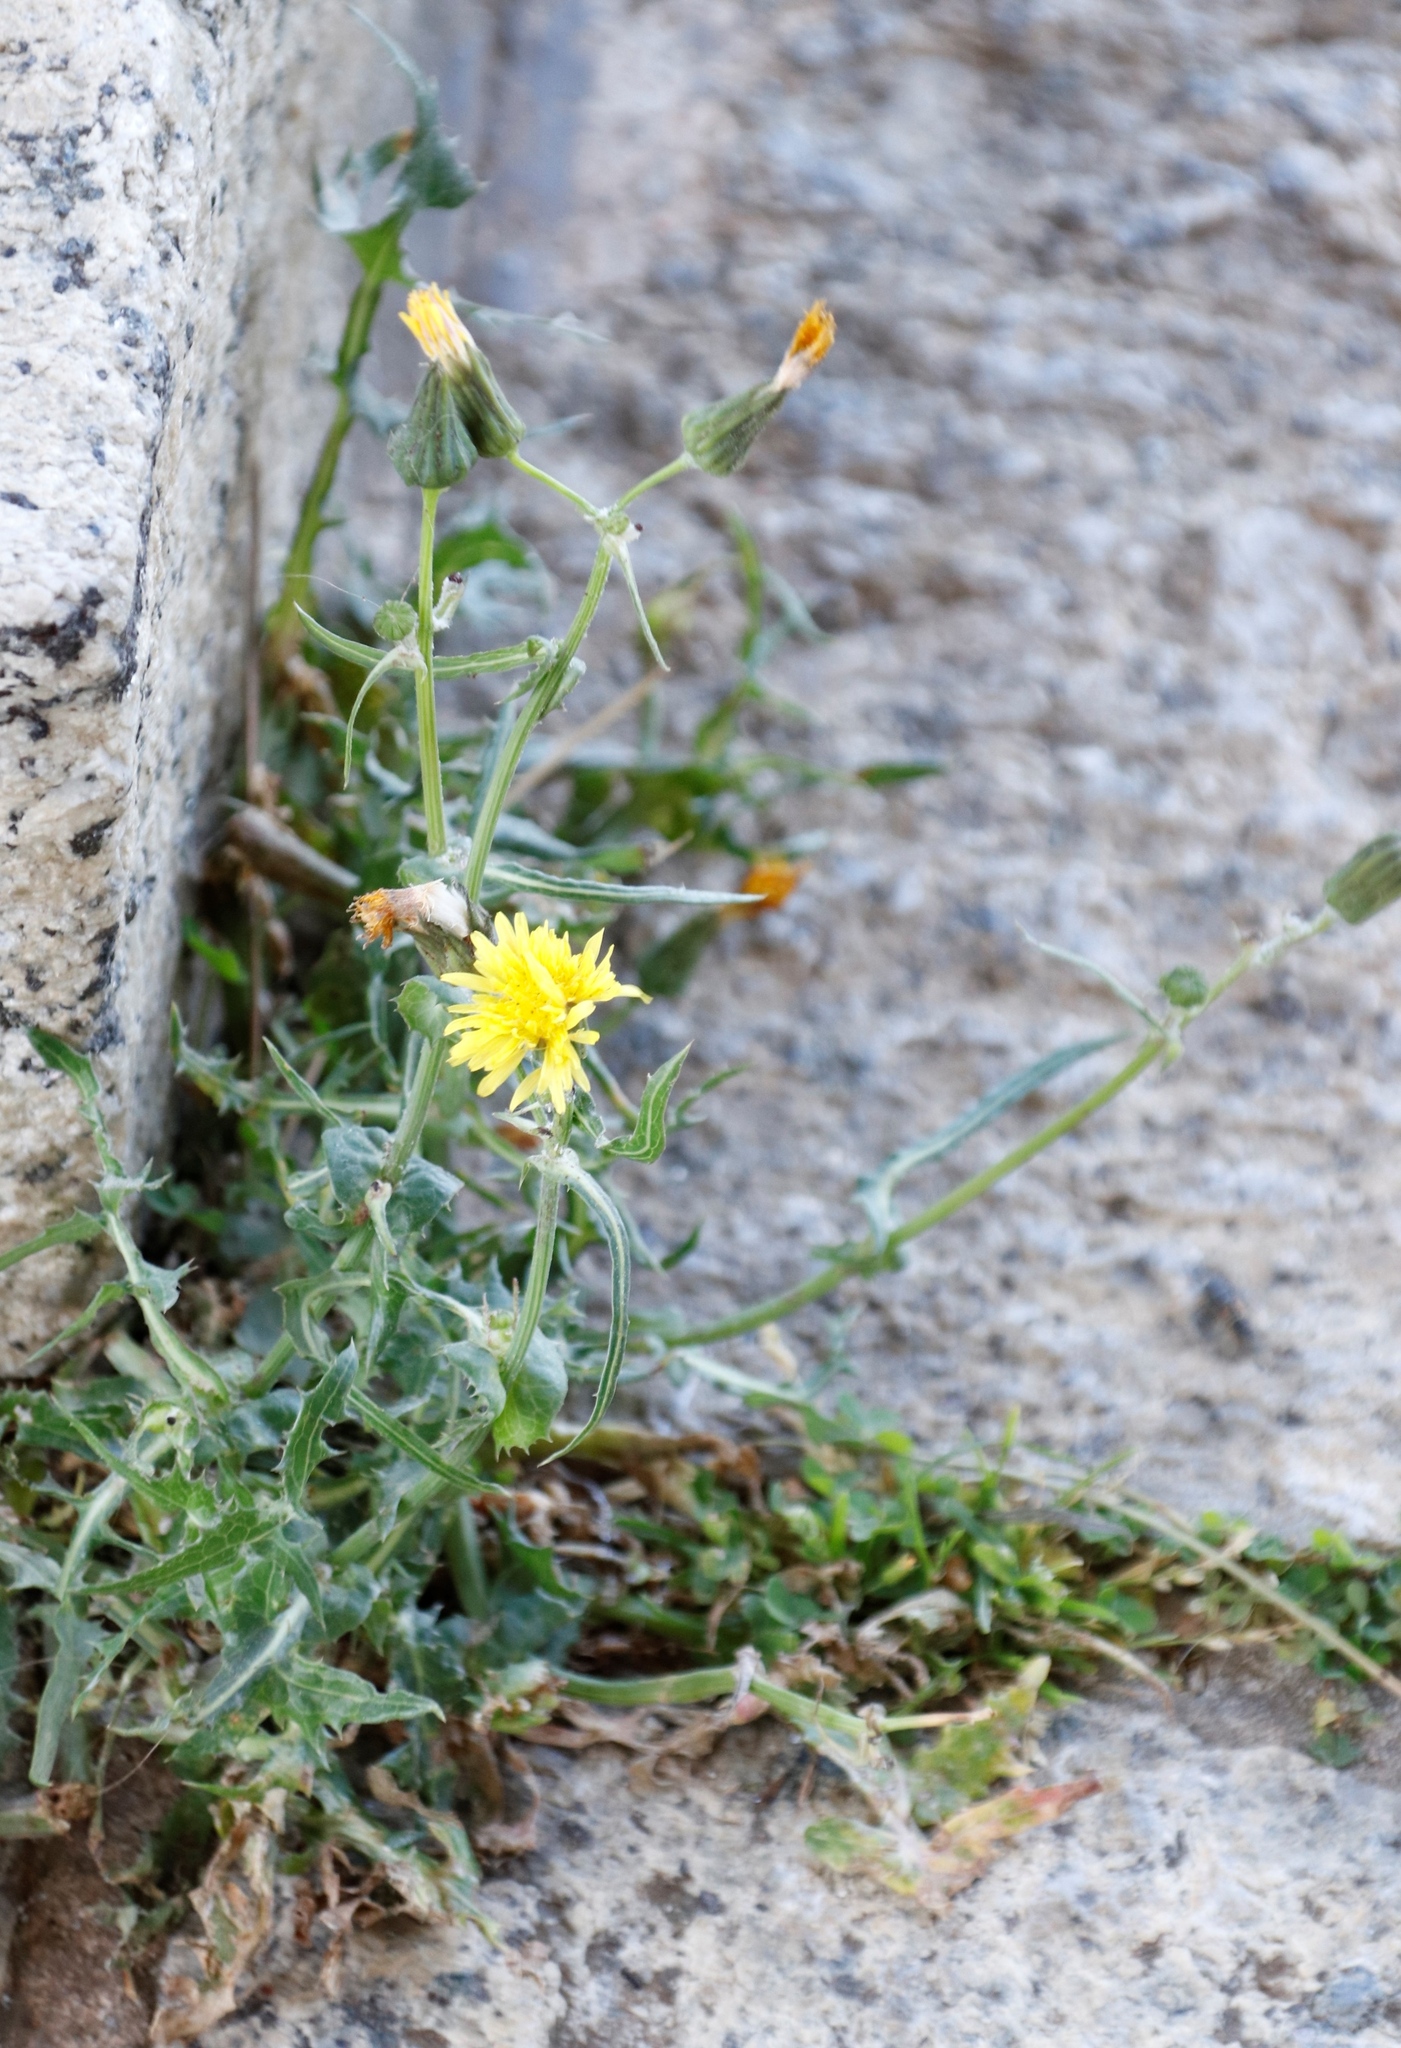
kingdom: Plantae
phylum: Tracheophyta
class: Magnoliopsida
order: Asterales
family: Asteraceae
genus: Sonchus
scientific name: Sonchus asper
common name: Prickly sow-thistle
